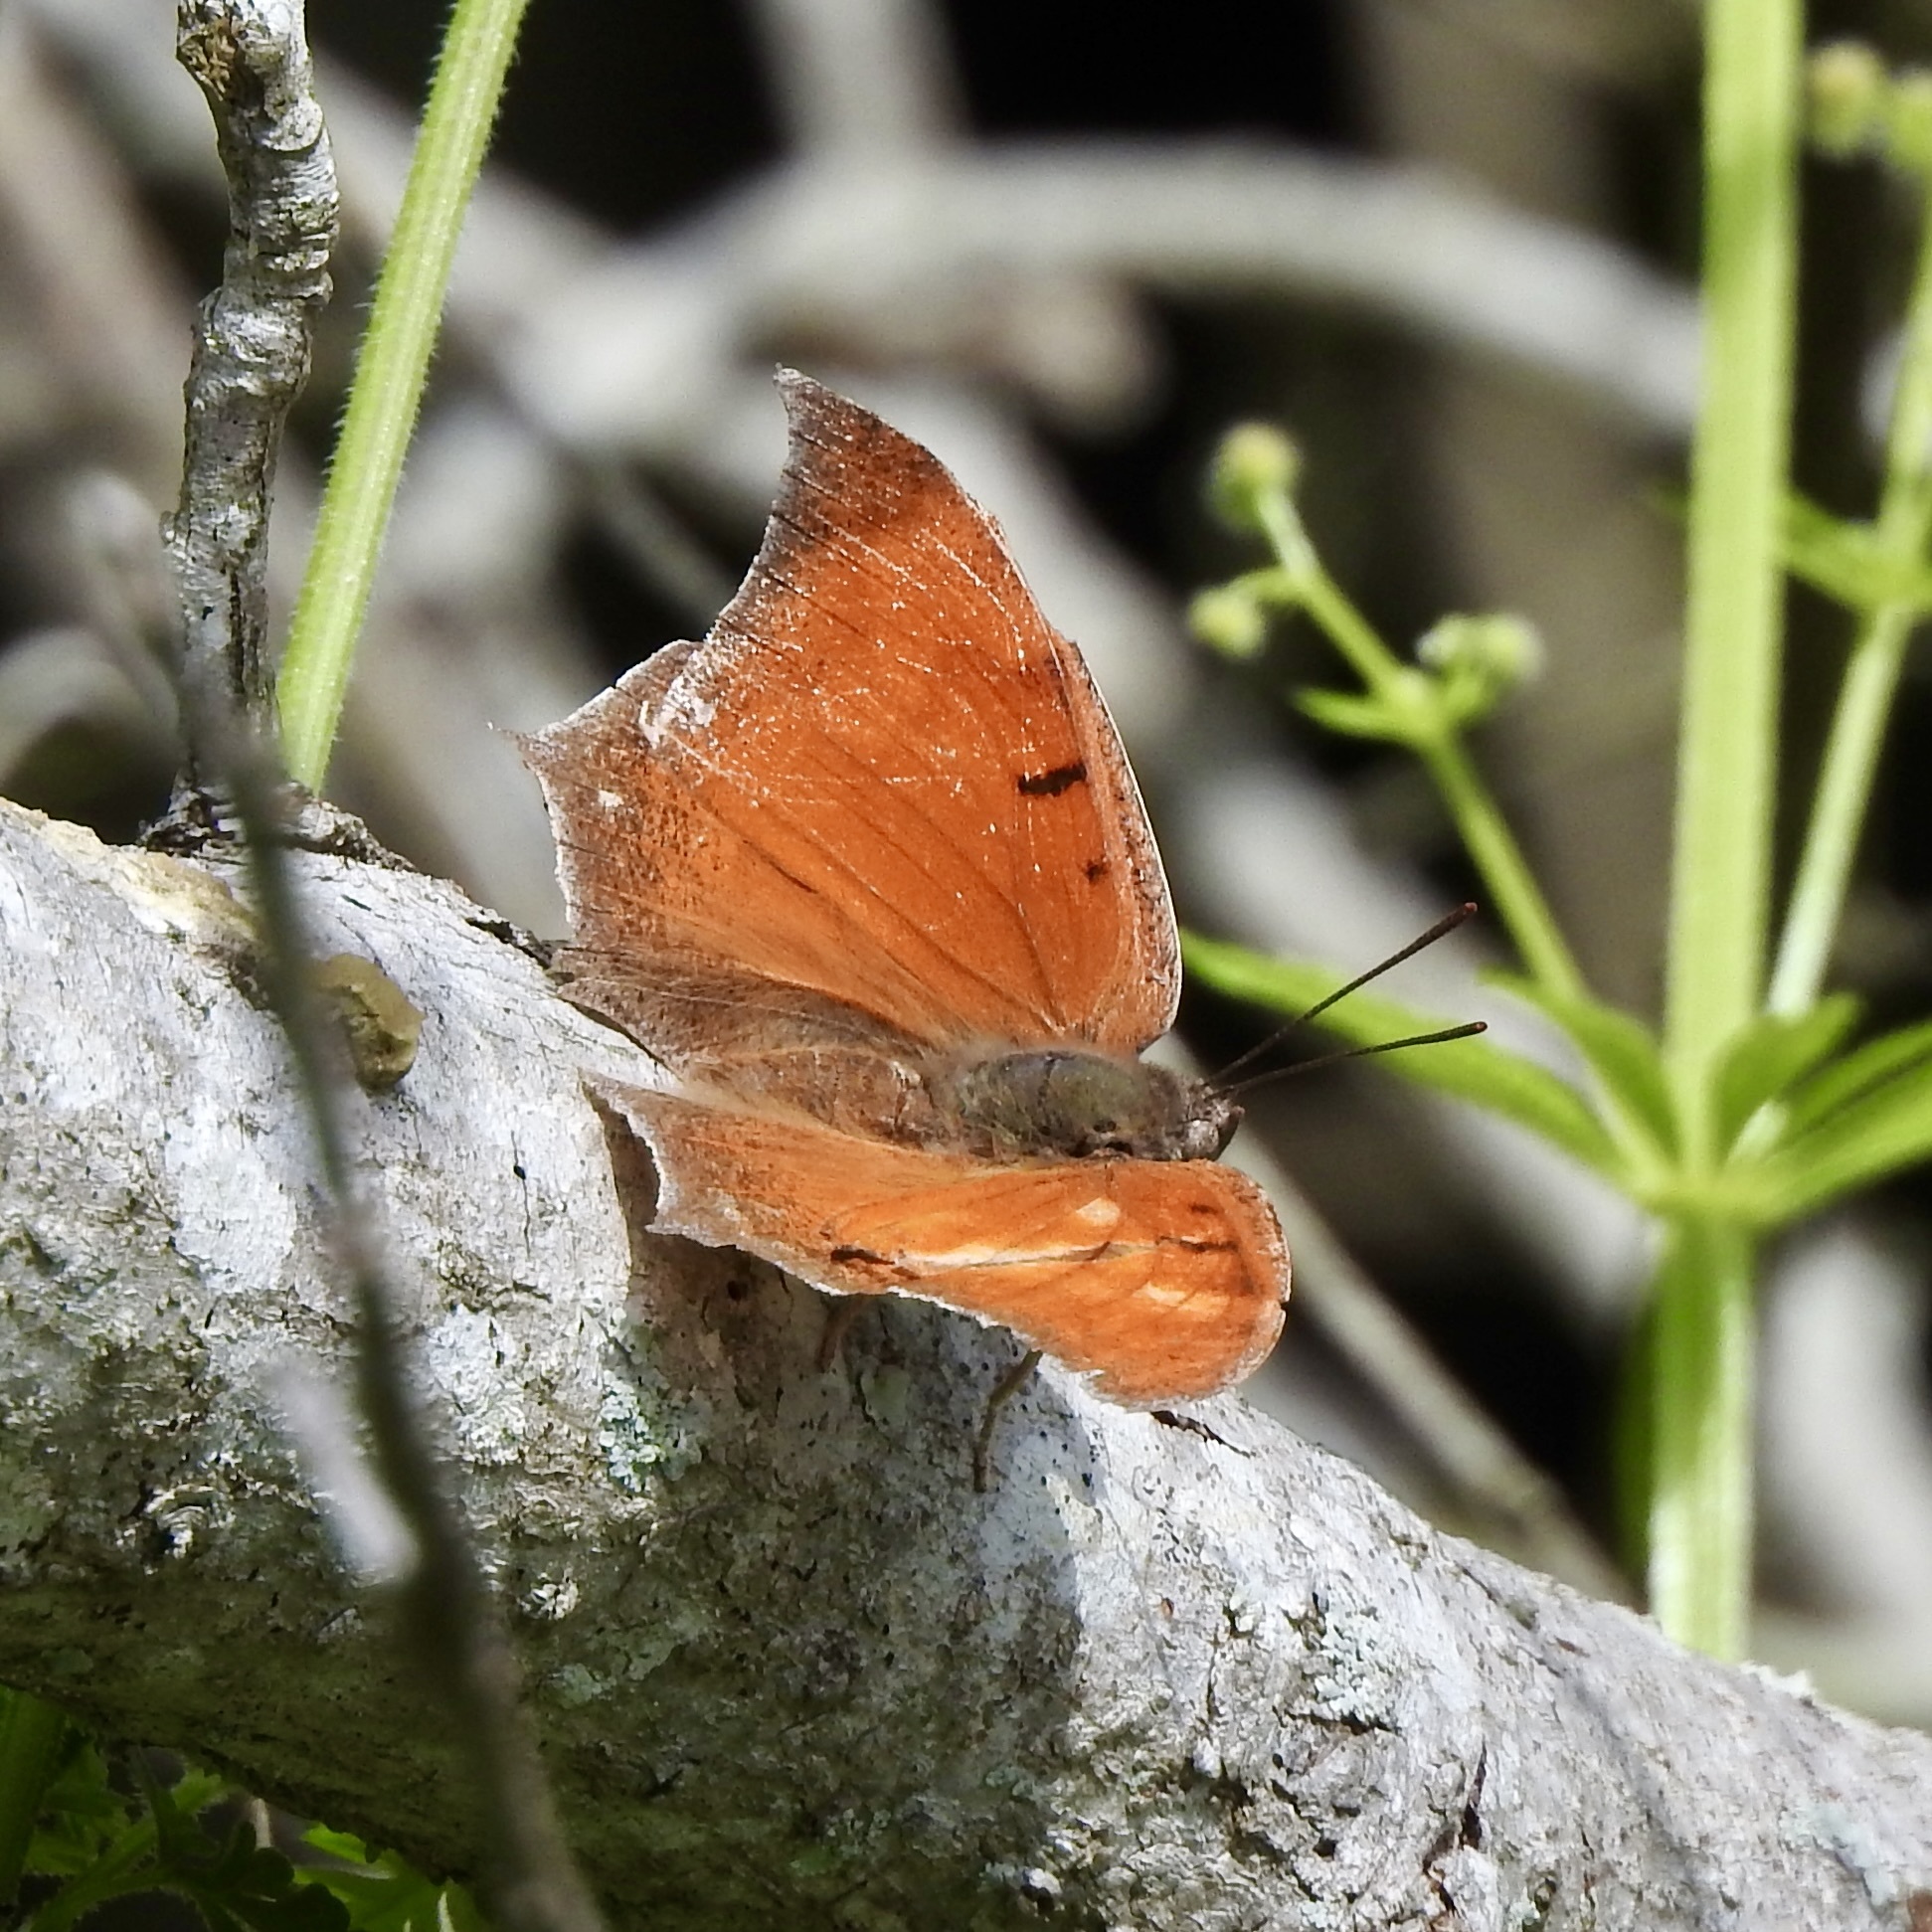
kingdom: Animalia
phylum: Arthropoda
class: Insecta
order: Lepidoptera
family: Nymphalidae
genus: Anaea
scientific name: Anaea andria
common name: Goatweed leafwing
